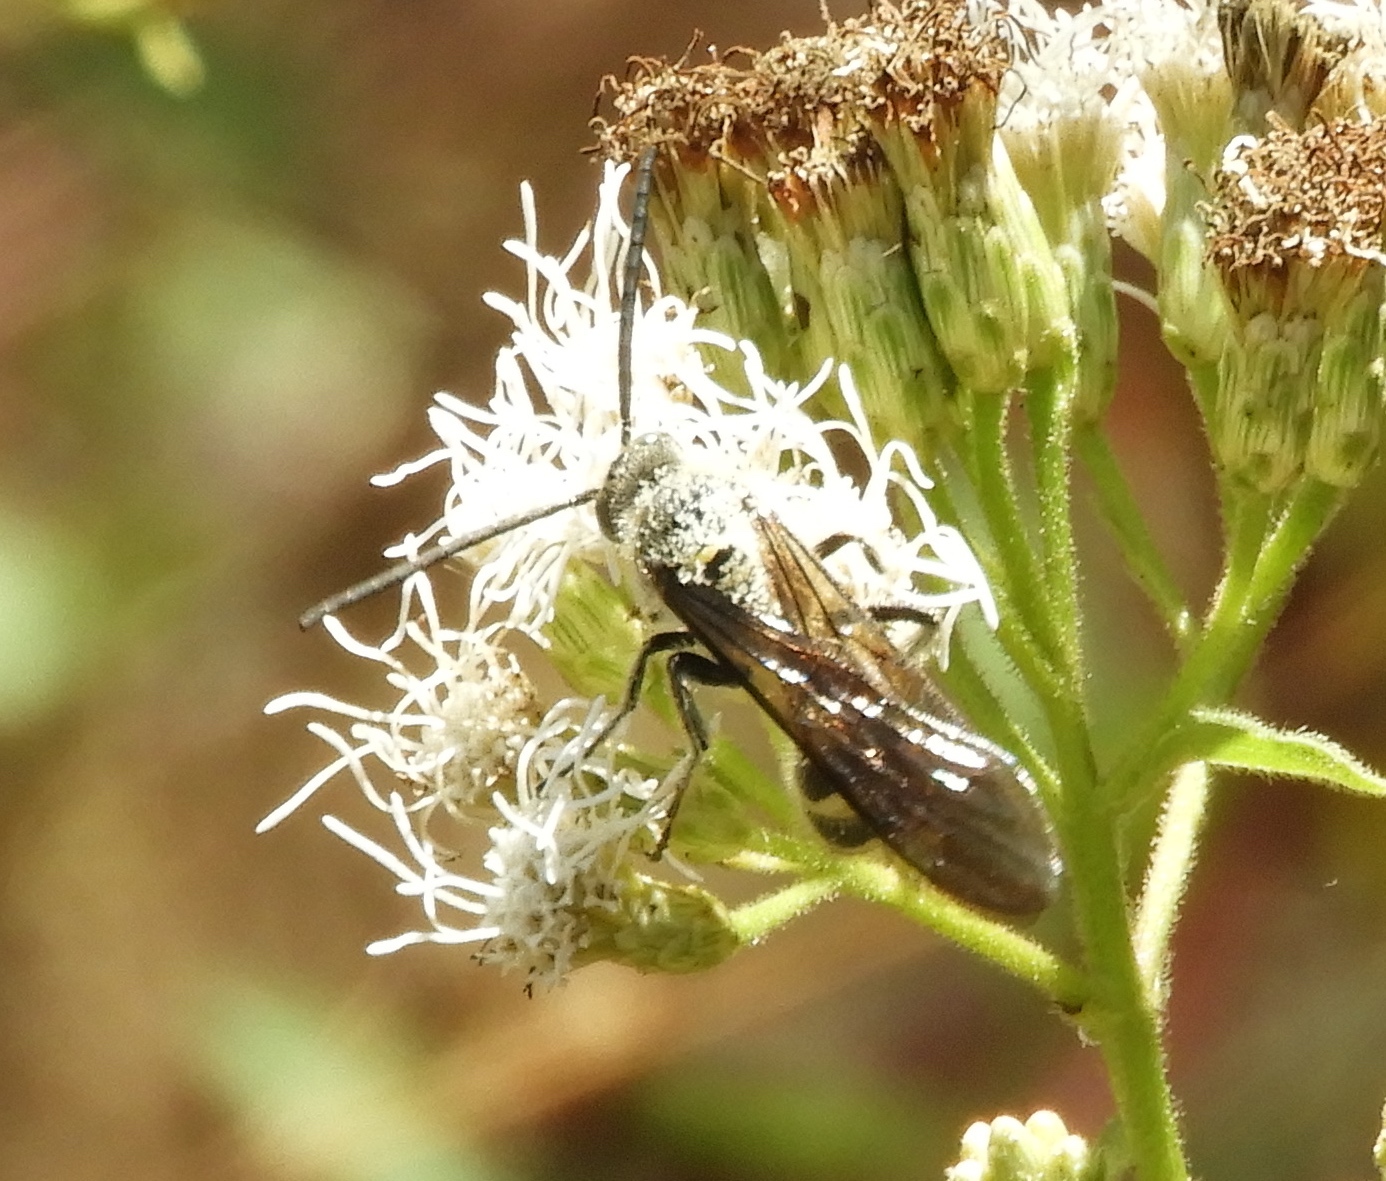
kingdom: Animalia
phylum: Arthropoda
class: Insecta
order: Hymenoptera
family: Scoliidae
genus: Dielis
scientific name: Dielis tolteca
